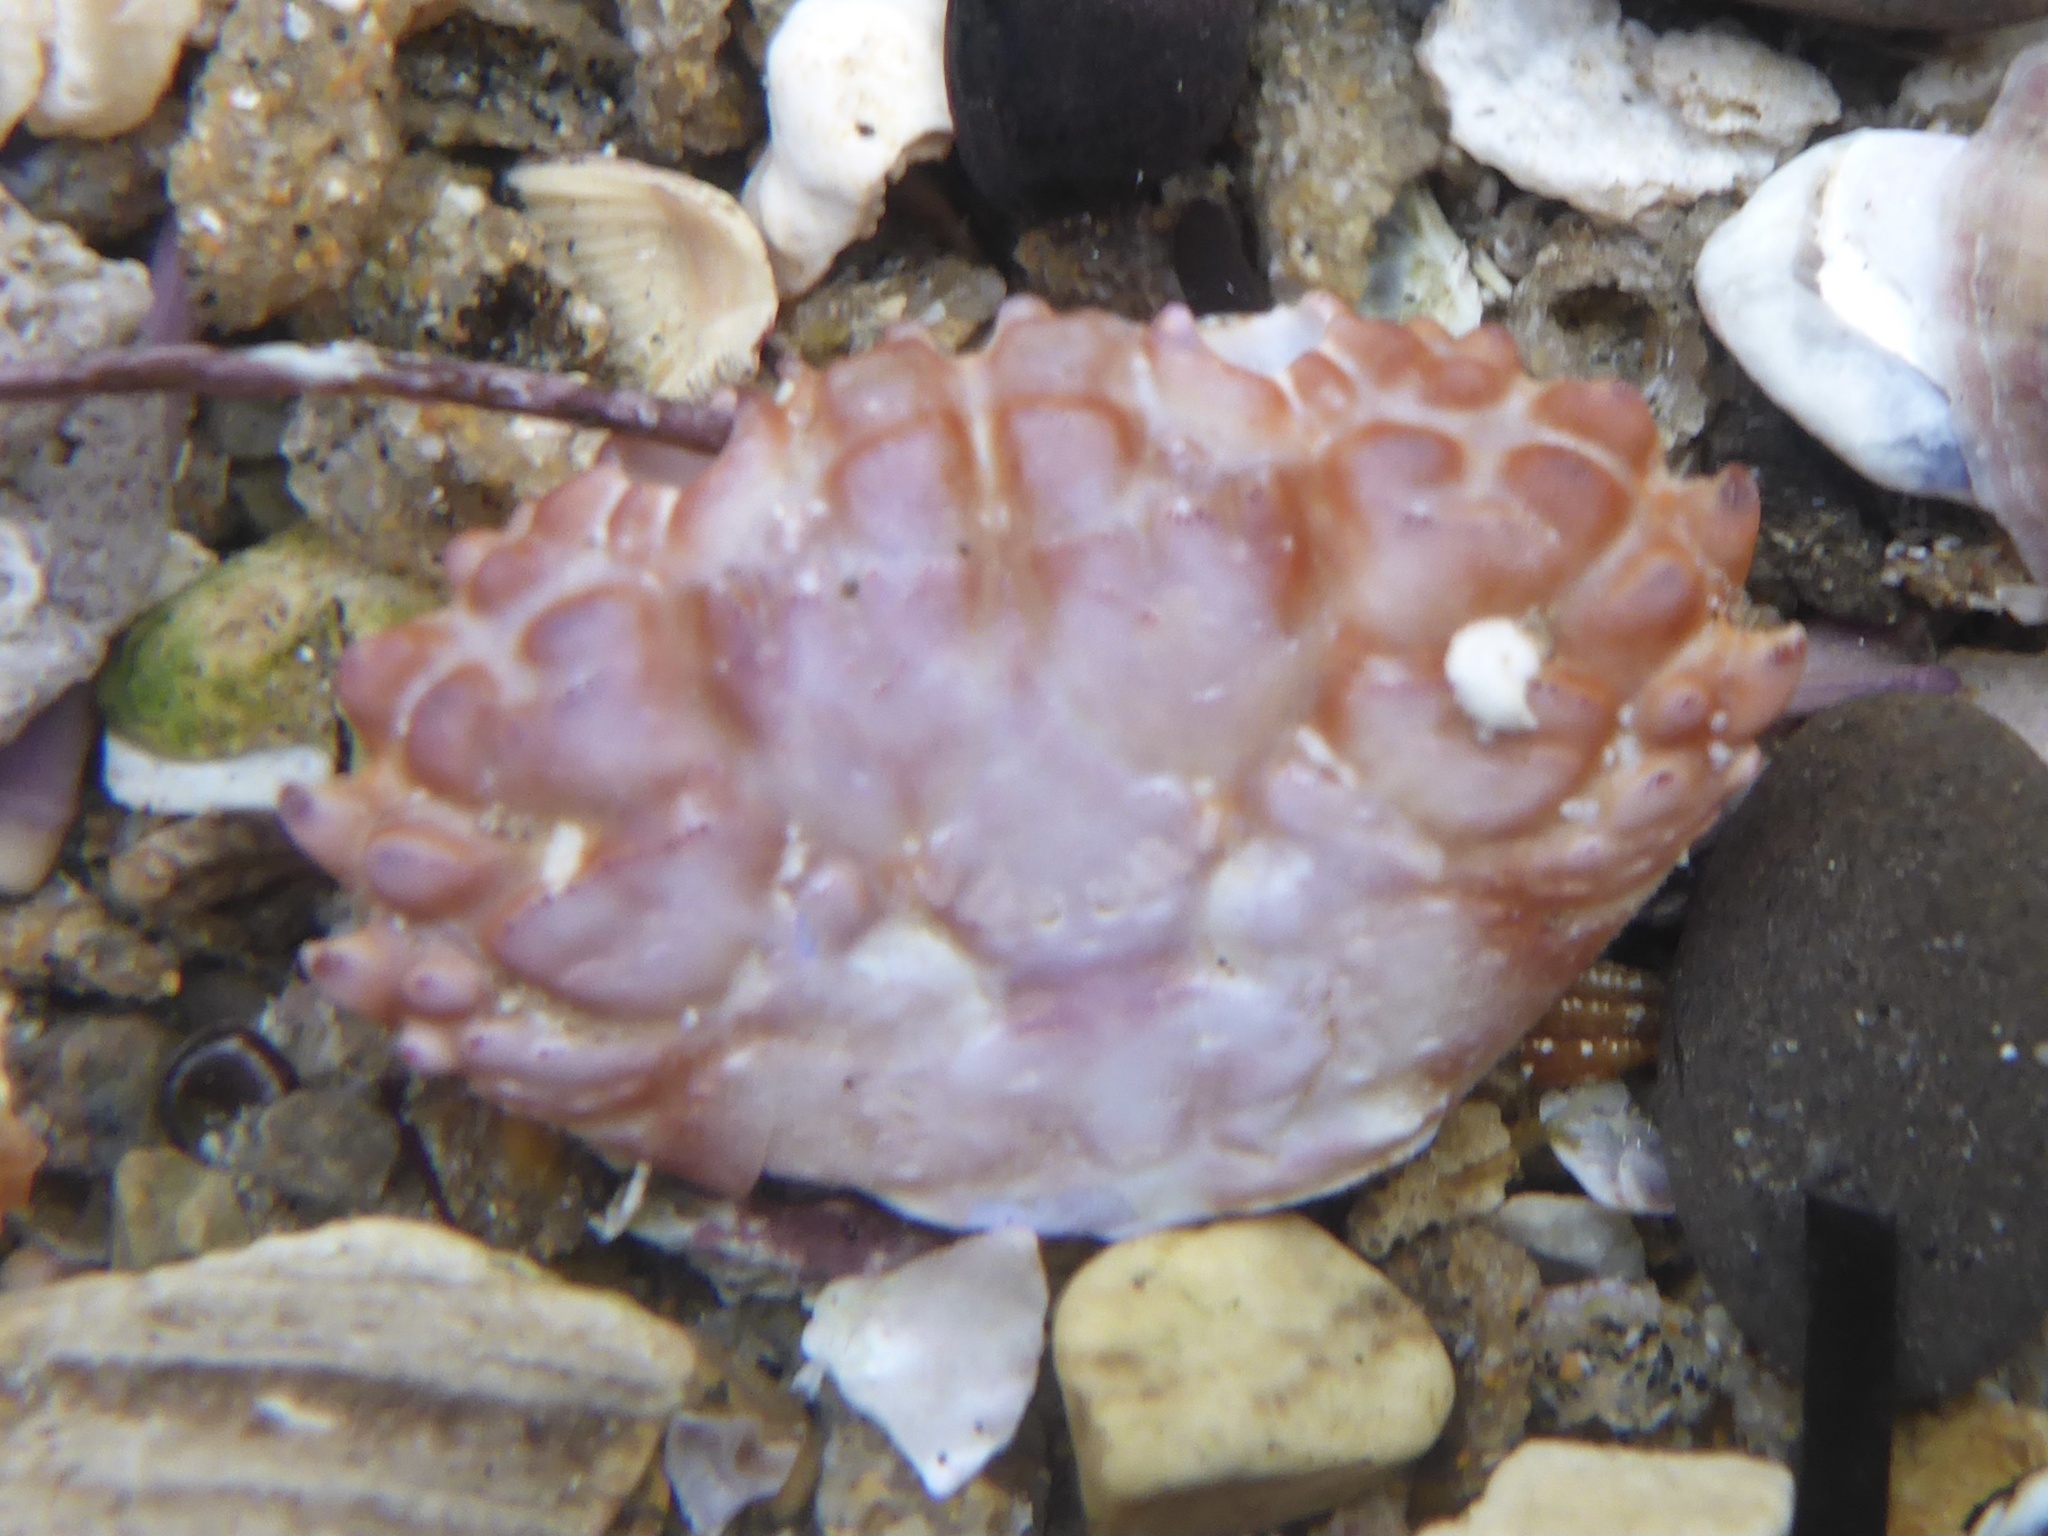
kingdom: Animalia
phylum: Arthropoda
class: Malacostraca
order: Decapoda
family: Xanthidae
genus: Paraxanthias
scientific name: Paraxanthias taylori
